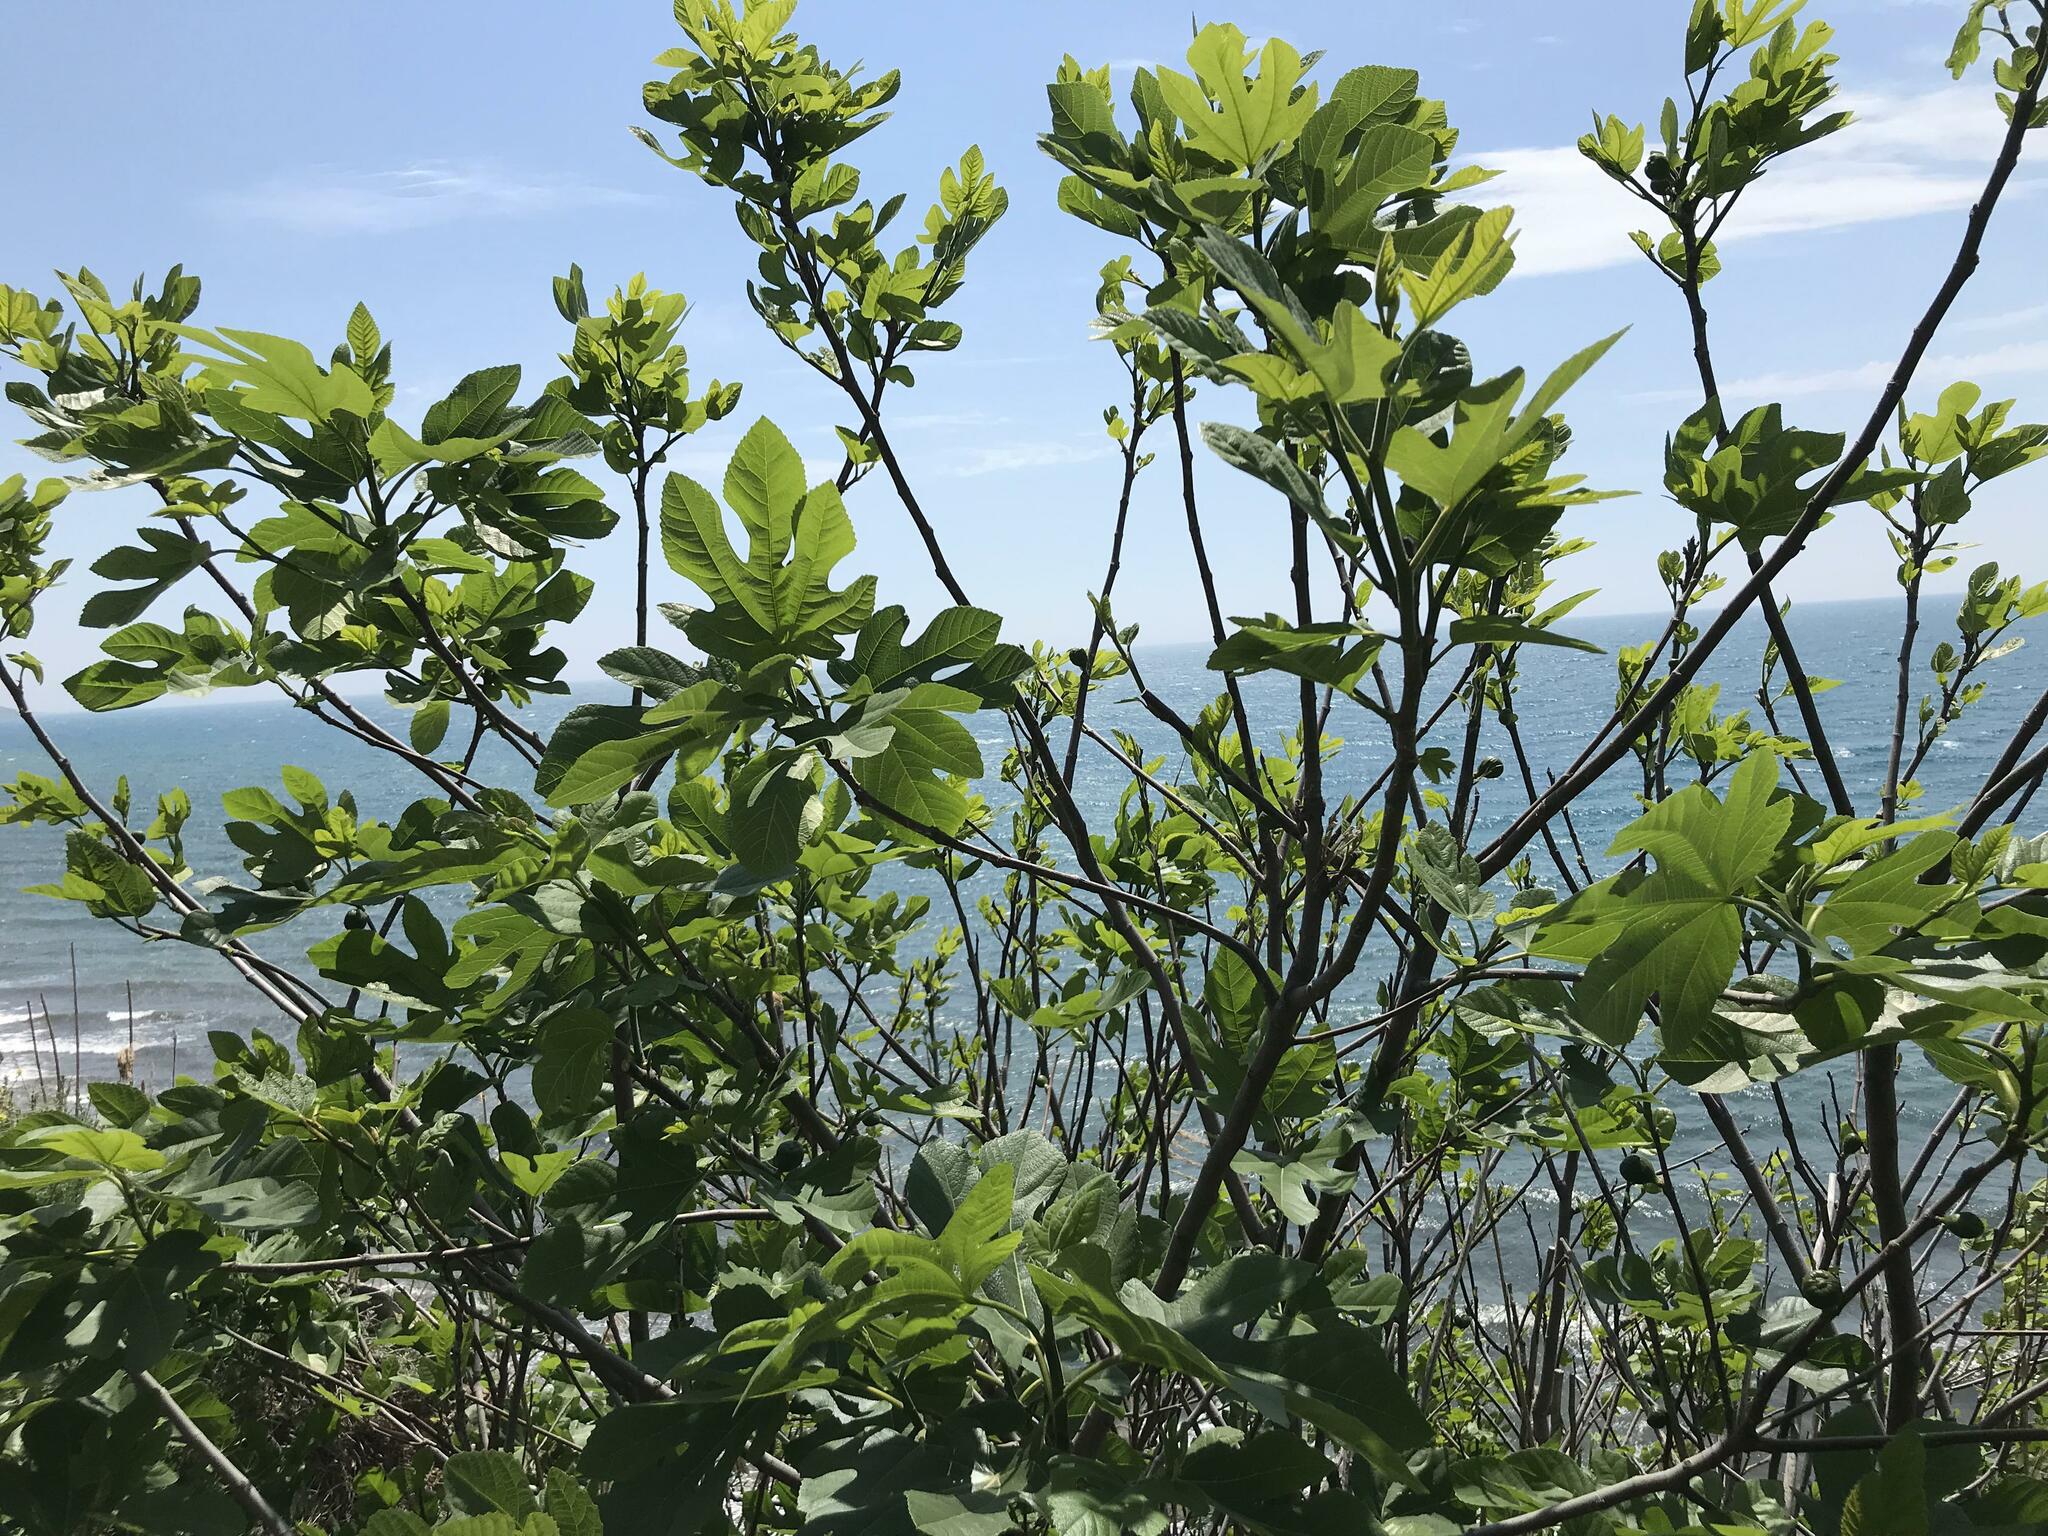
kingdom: Plantae
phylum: Tracheophyta
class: Magnoliopsida
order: Rosales
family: Moraceae
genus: Ficus
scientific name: Ficus carica
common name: Fig
